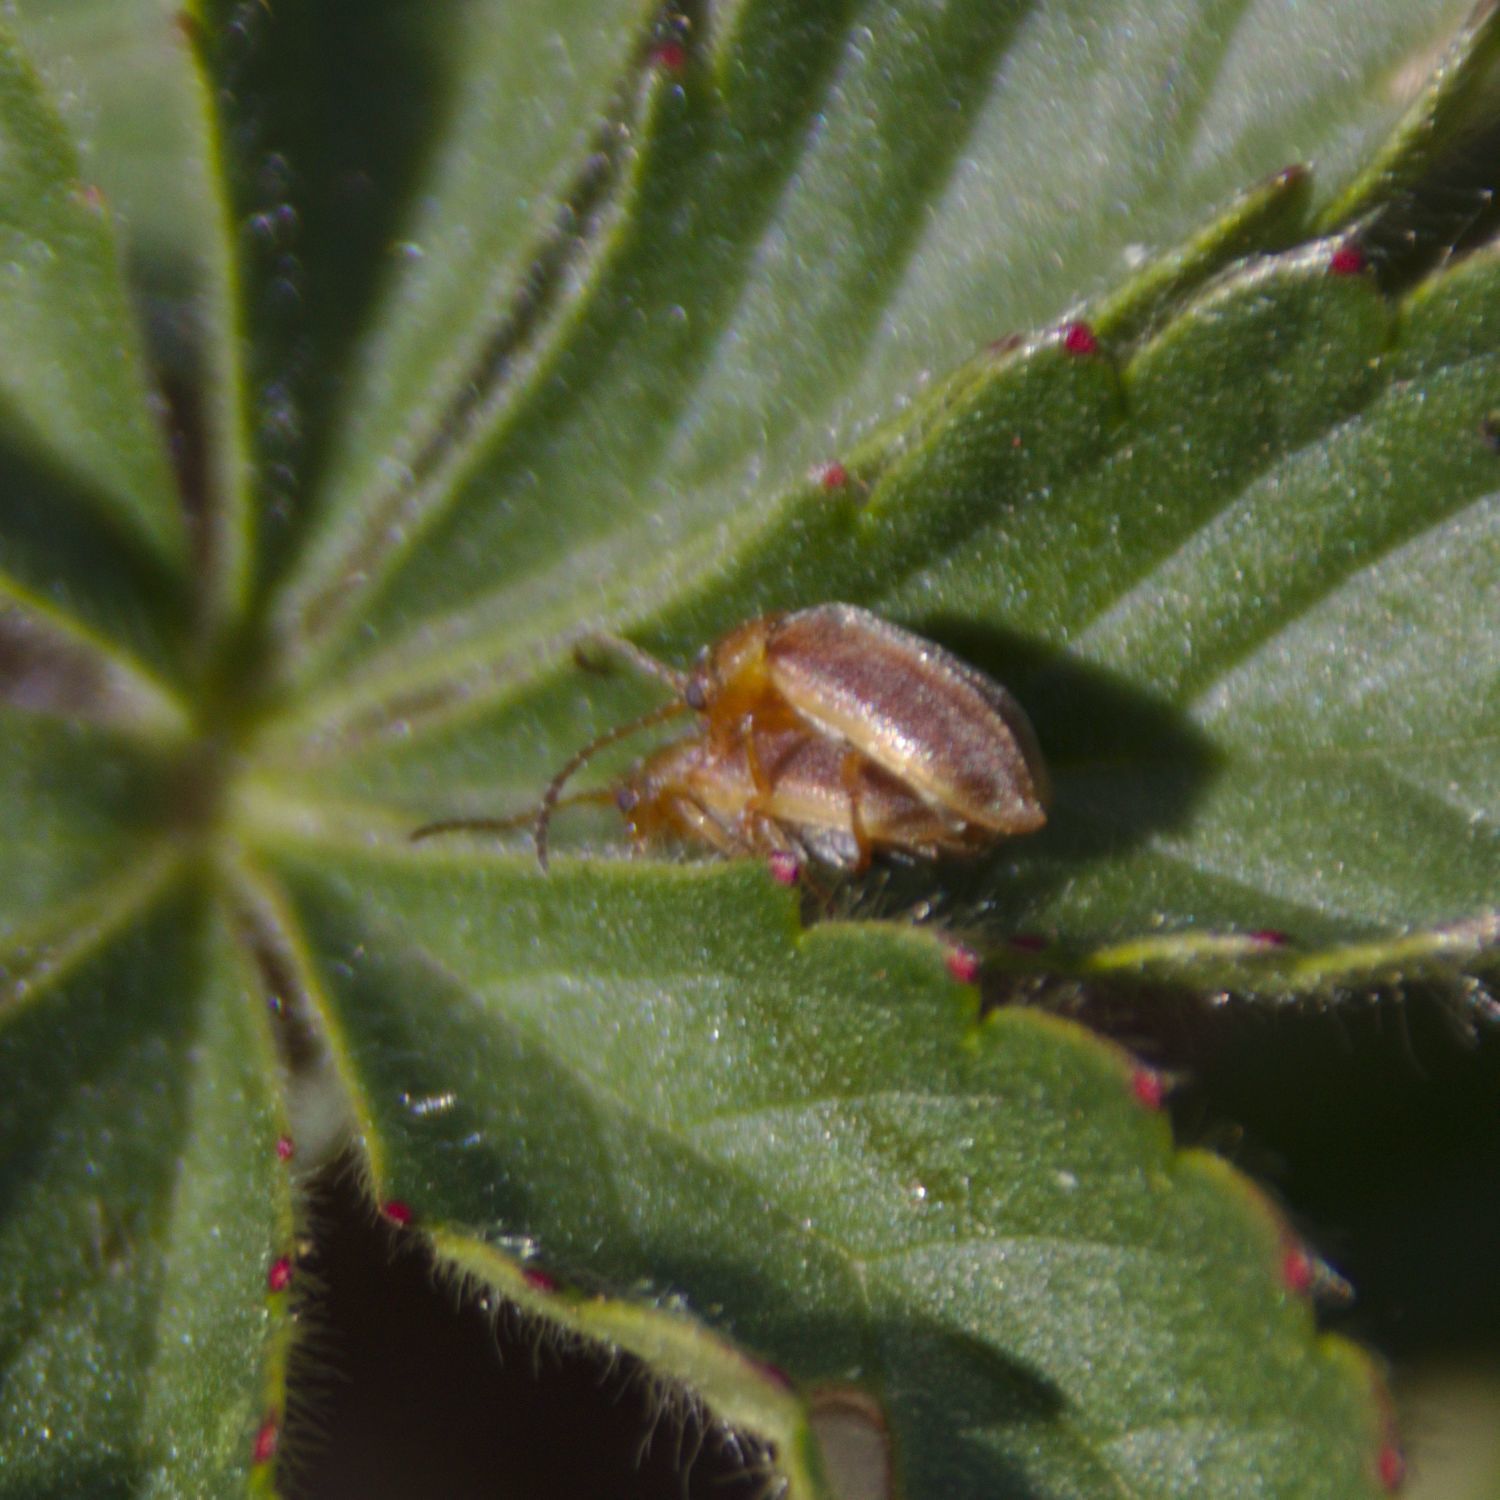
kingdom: Animalia
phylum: Arthropoda
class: Insecta
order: Coleoptera
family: Chrysomelidae
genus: Galerucini
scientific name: Galerucini
